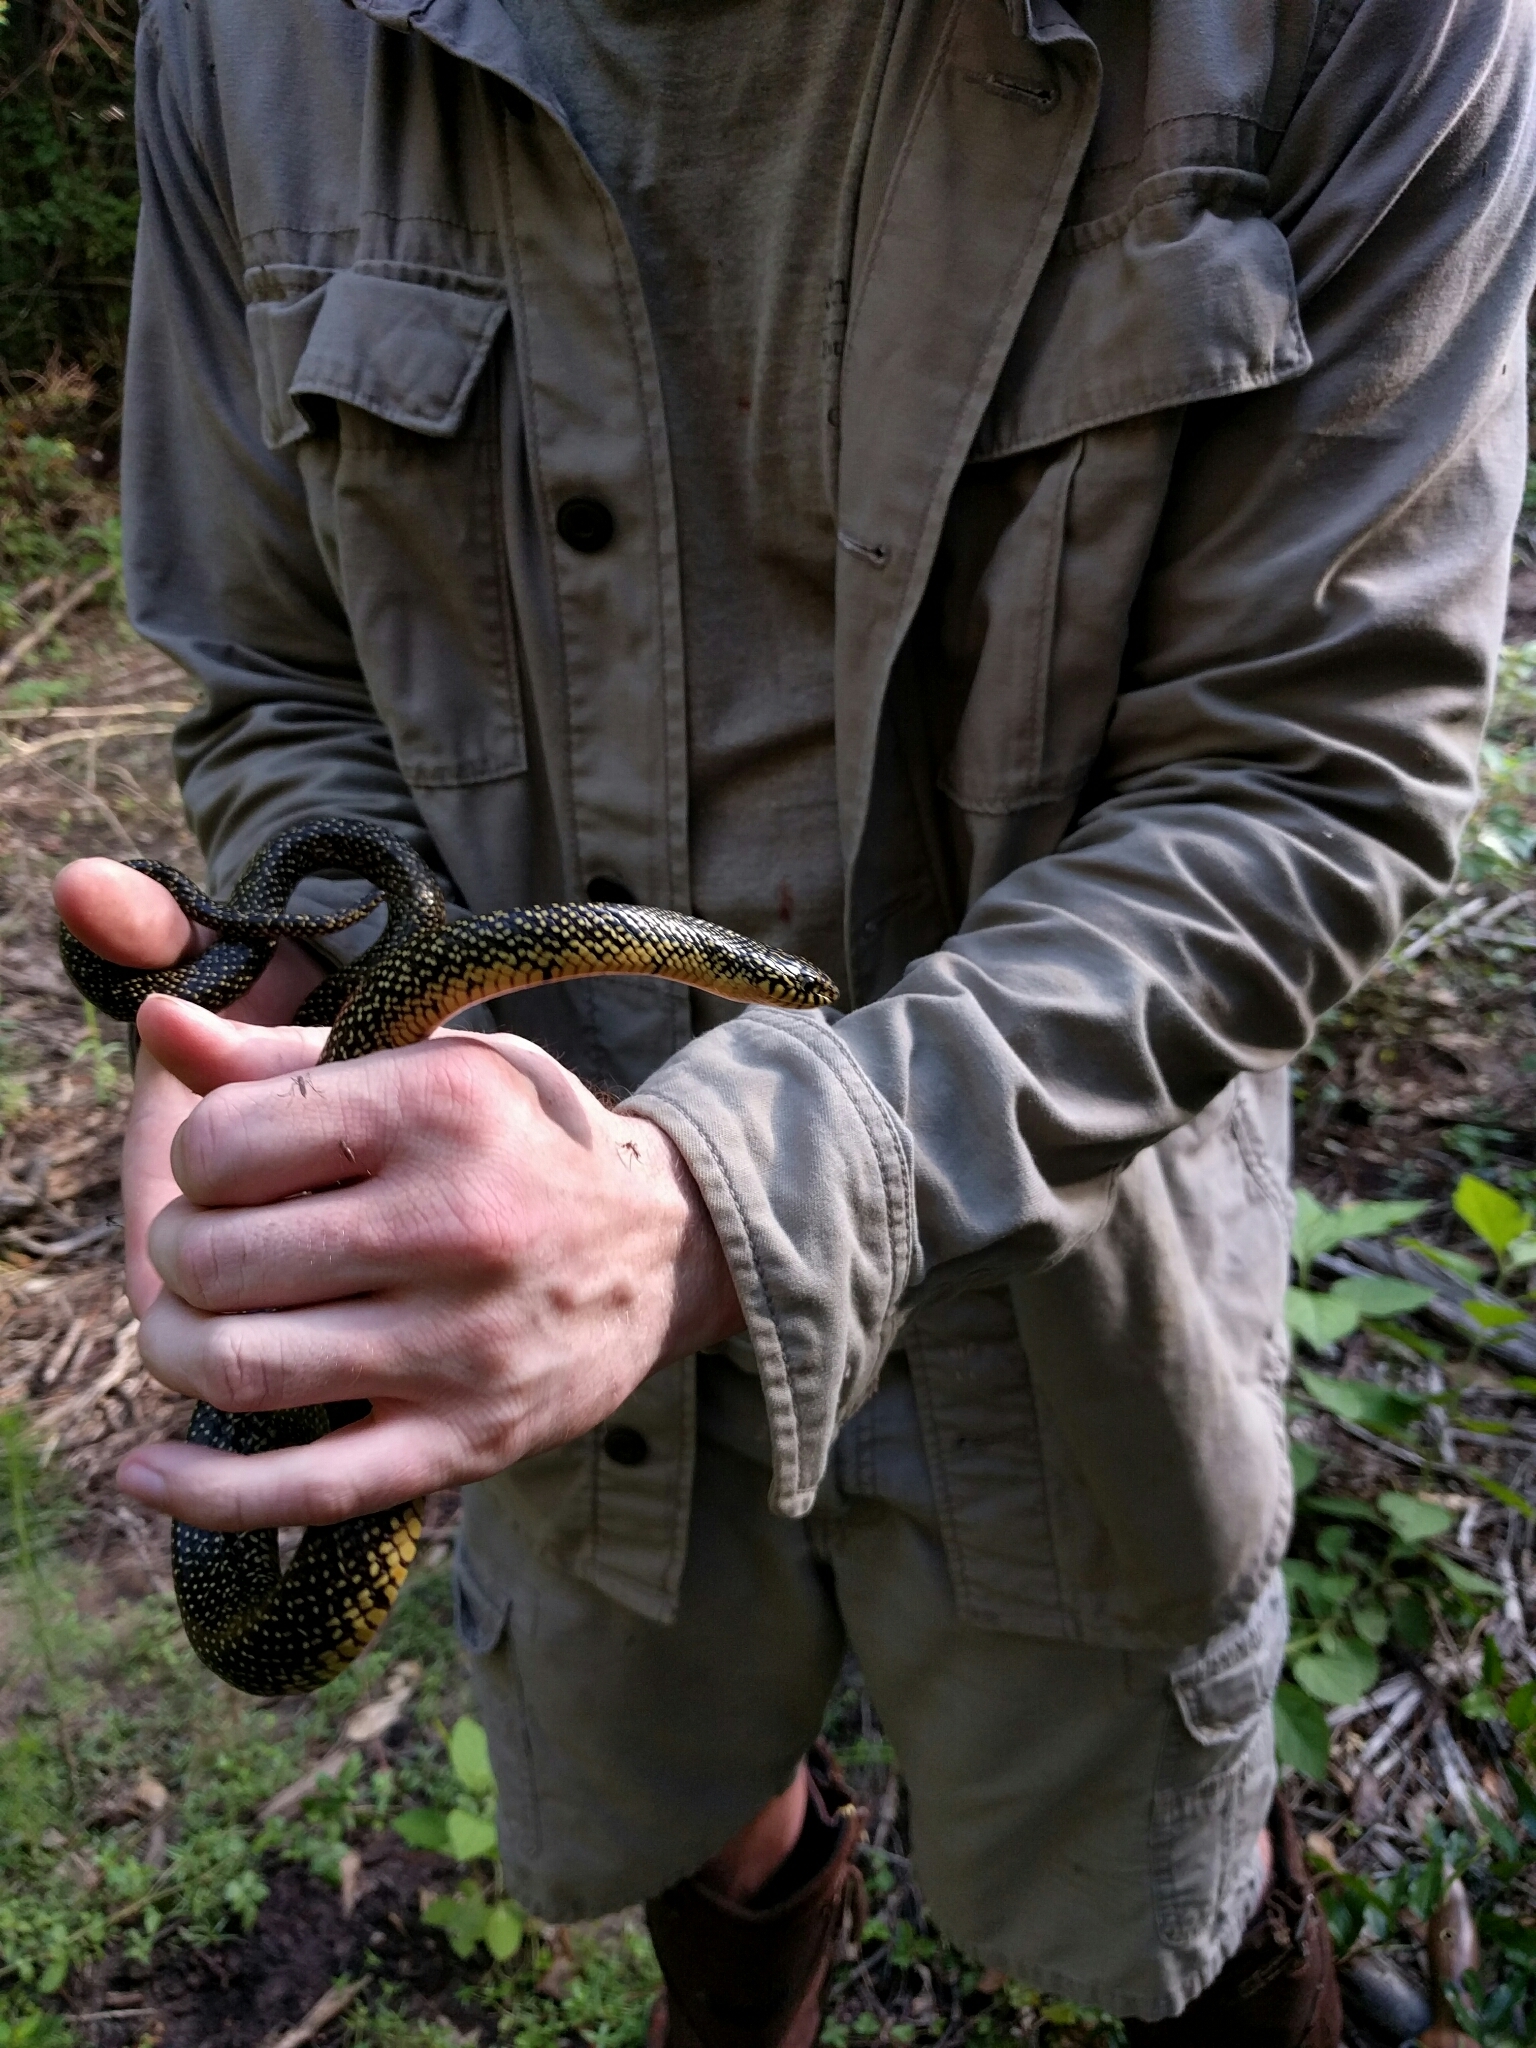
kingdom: Animalia
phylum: Chordata
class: Squamata
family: Colubridae
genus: Lampropeltis
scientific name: Lampropeltis holbrooki
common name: Speckled kingsnake
